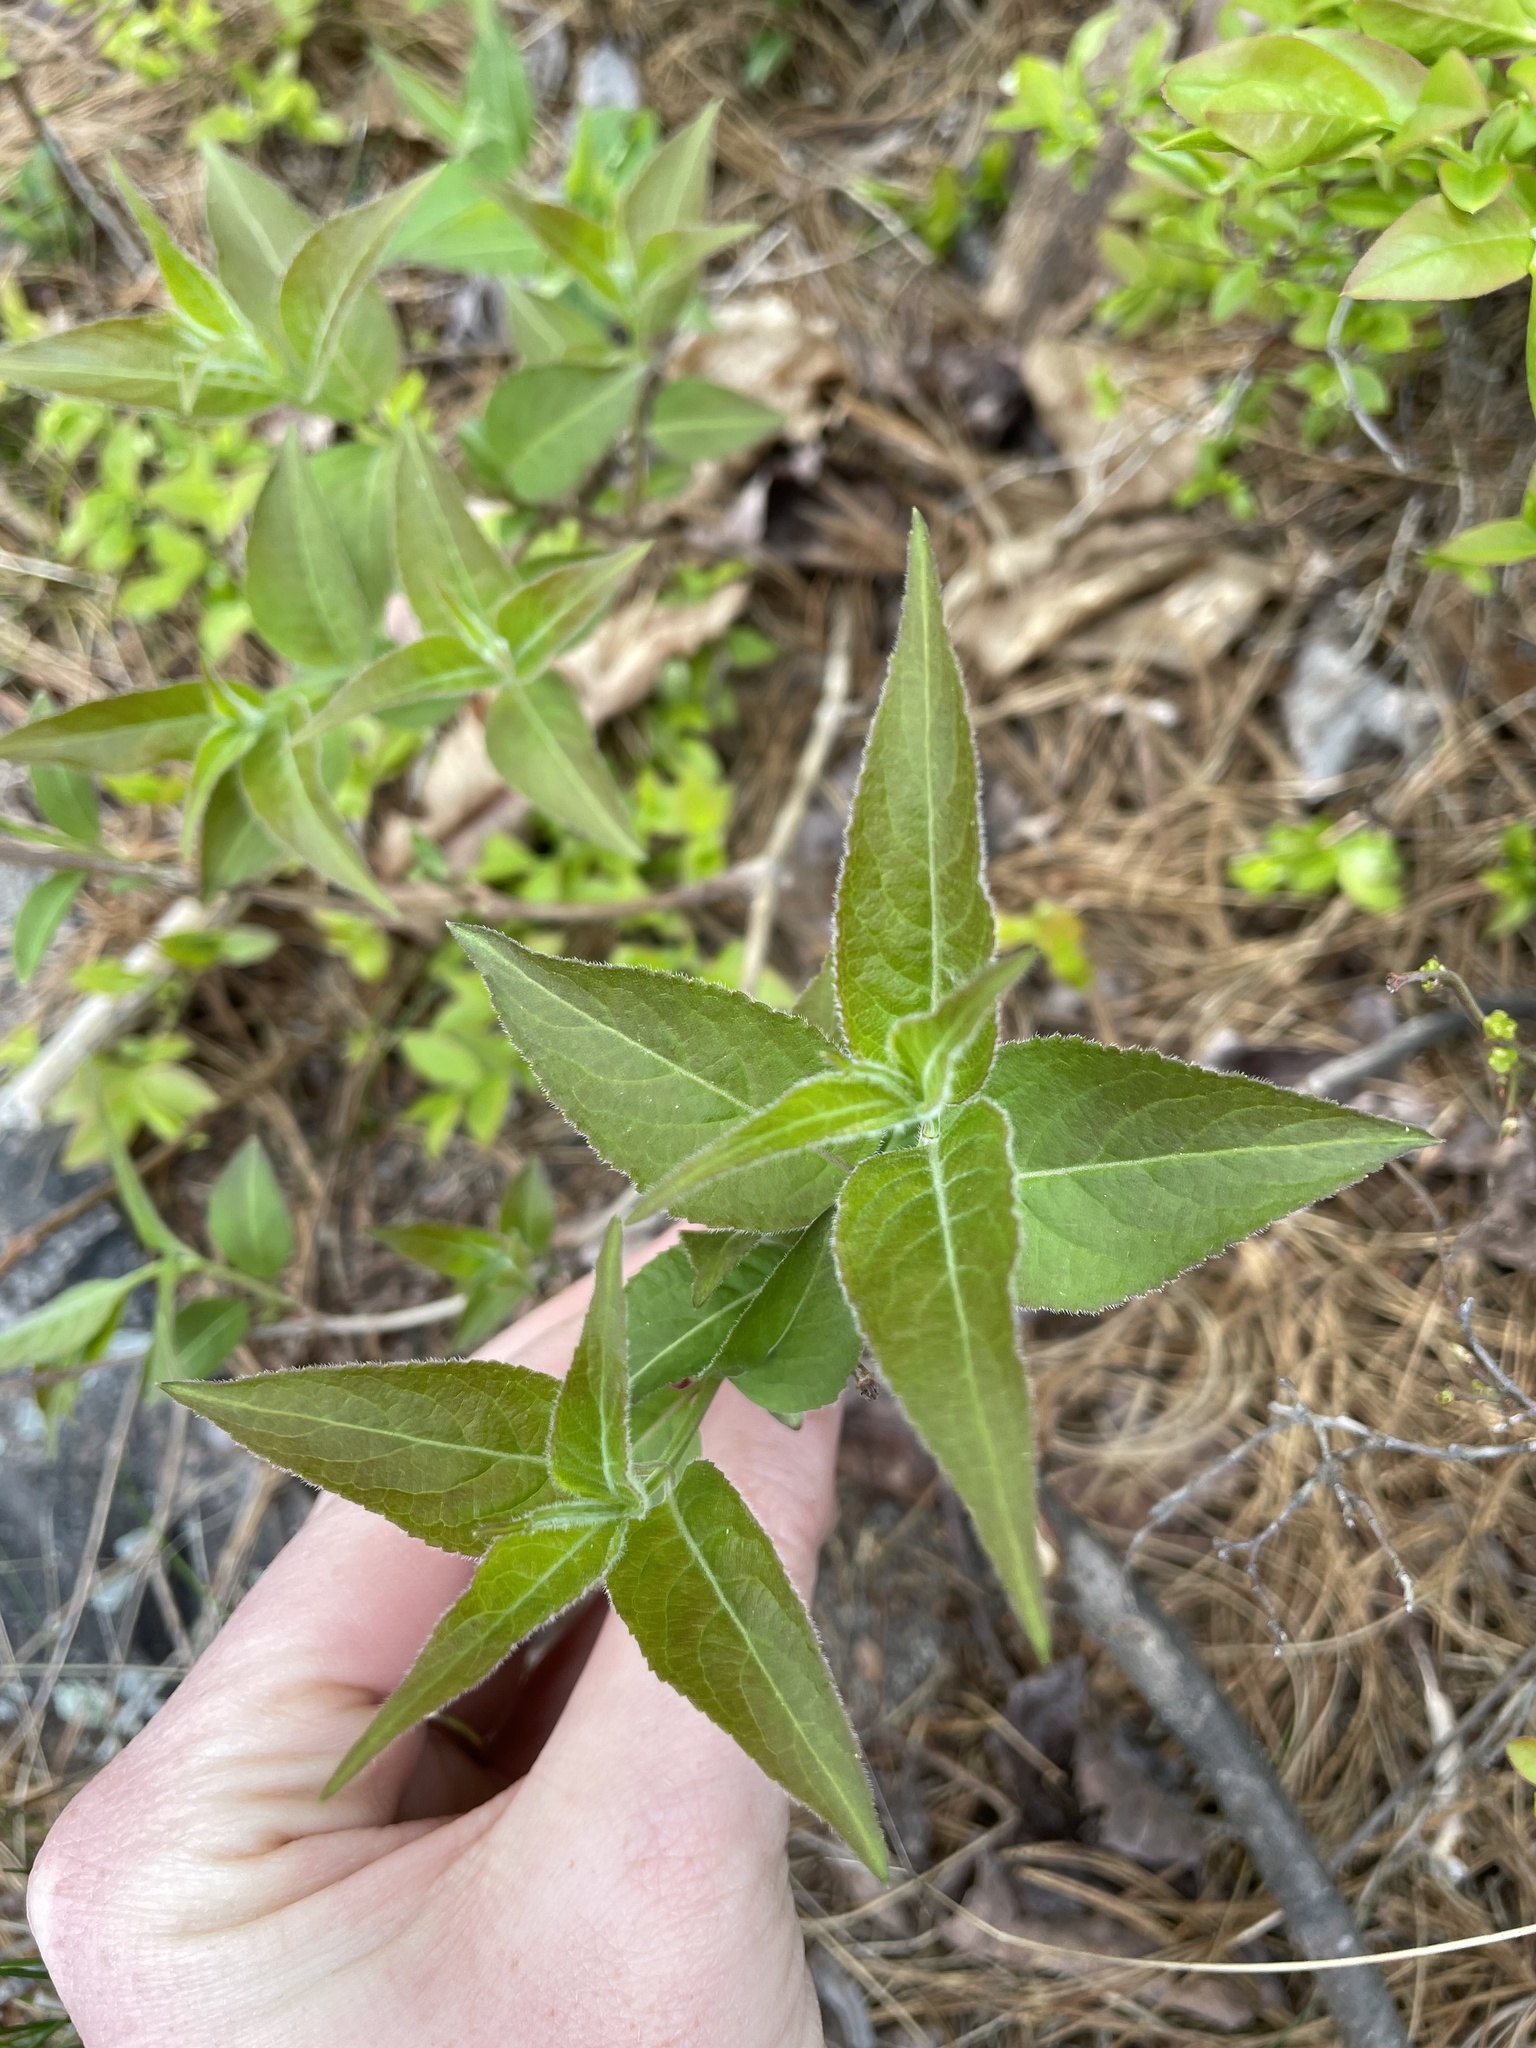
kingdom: Plantae
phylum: Tracheophyta
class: Magnoliopsida
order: Dipsacales
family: Caprifoliaceae
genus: Diervilla
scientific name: Diervilla lonicera
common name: Bush-honeysuckle
